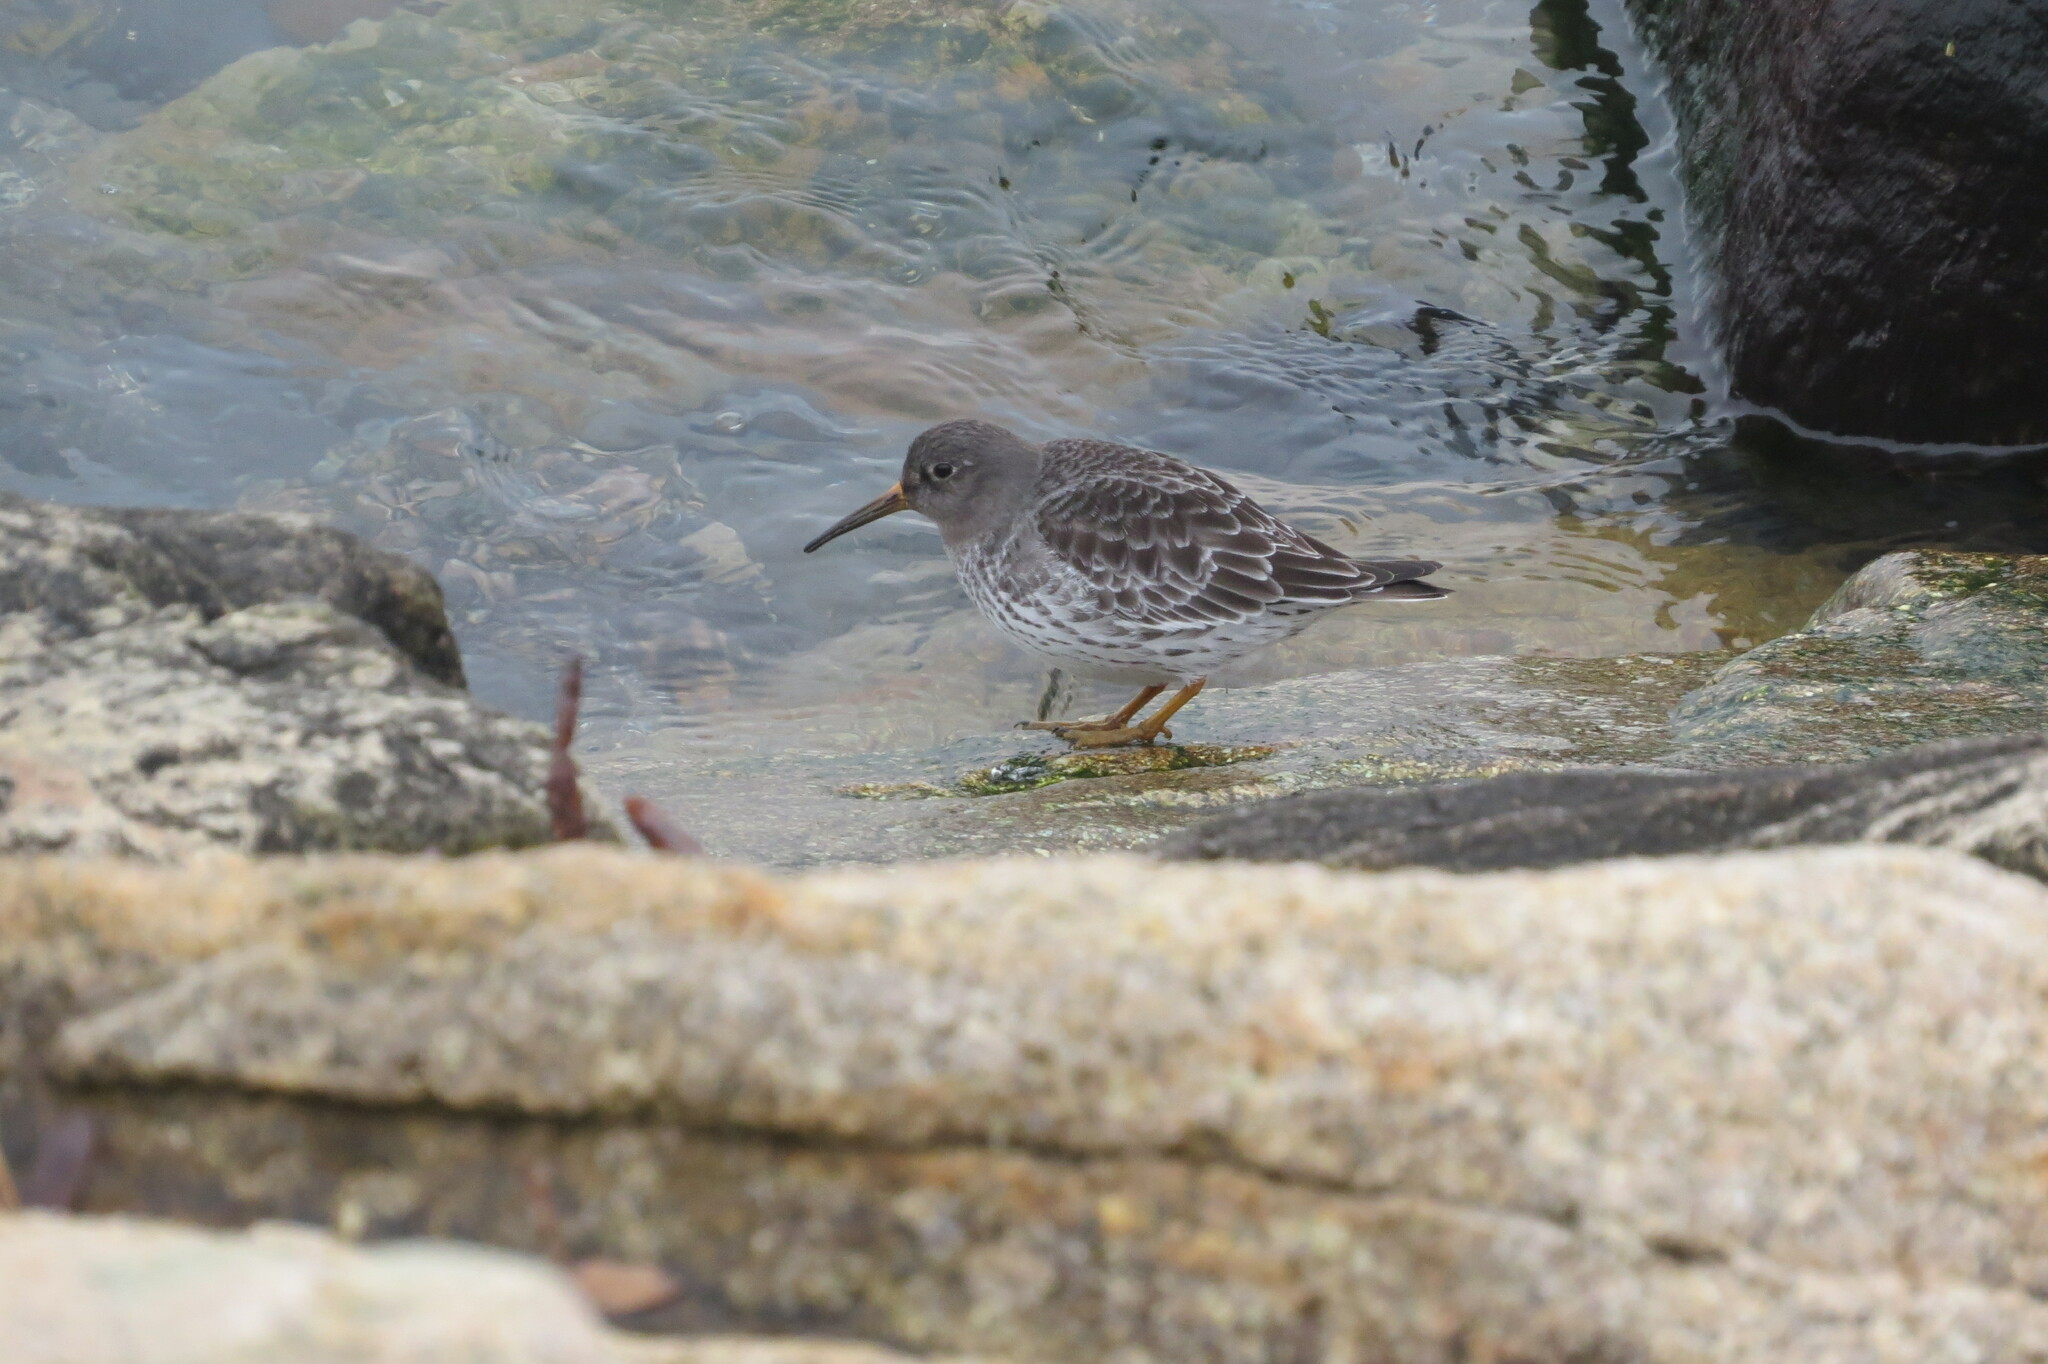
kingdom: Animalia
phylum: Chordata
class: Aves
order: Charadriiformes
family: Scolopacidae
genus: Calidris
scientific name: Calidris maritima
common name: Purple sandpiper
